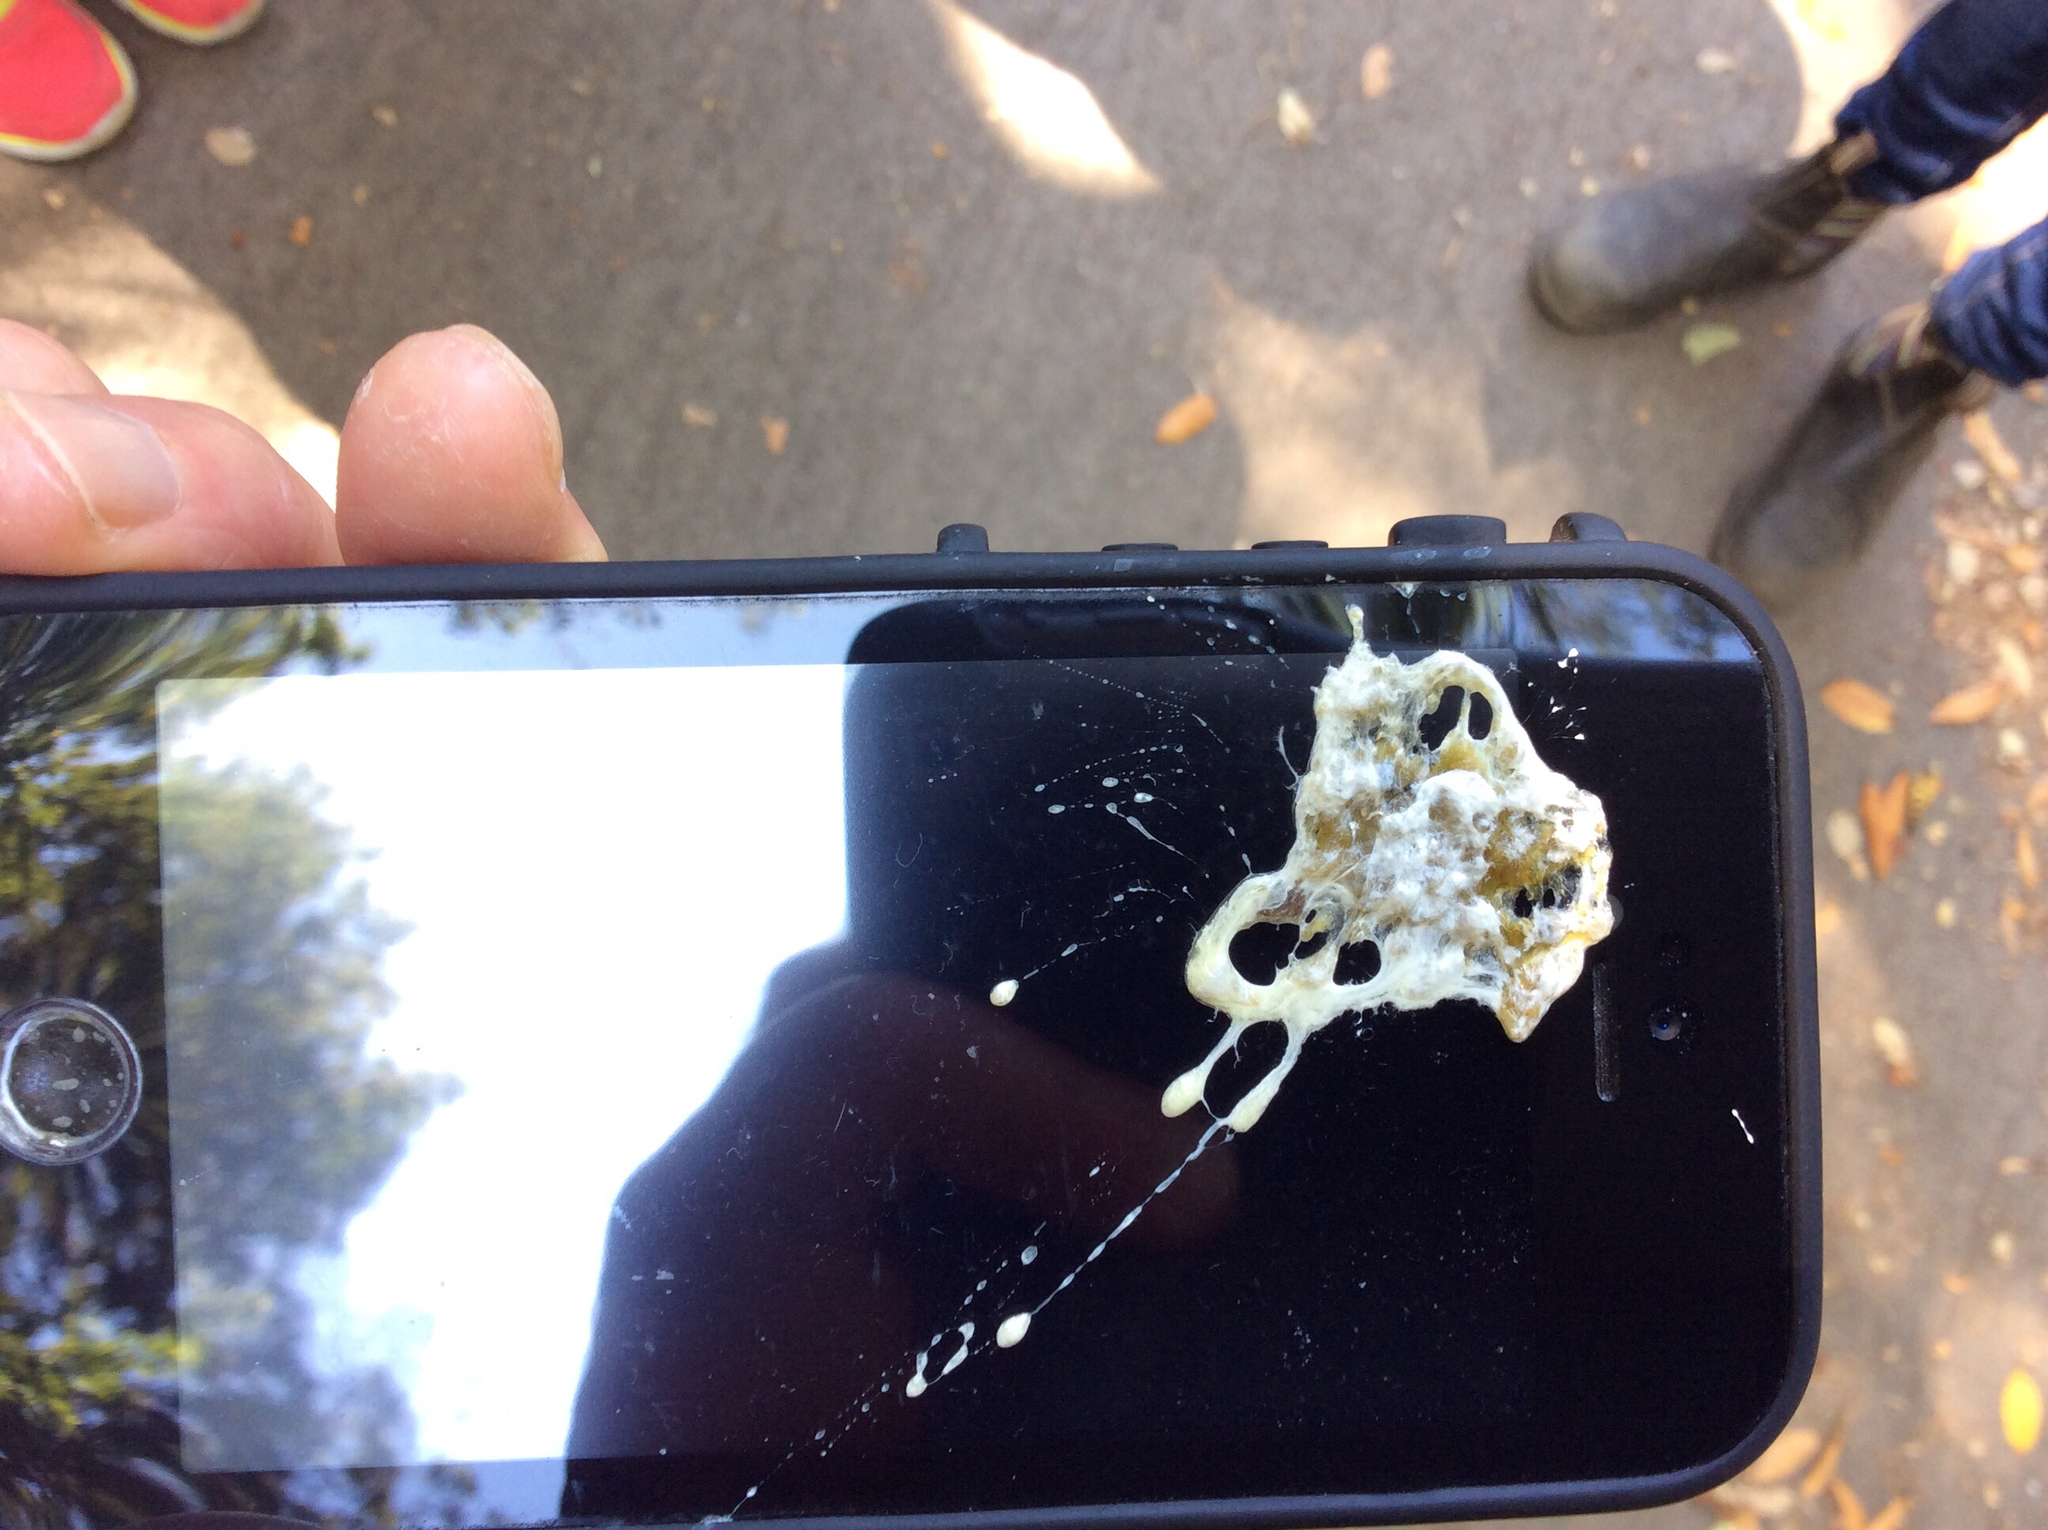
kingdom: Animalia
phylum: Chordata
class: Aves
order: Passeriformes
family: Corvidae
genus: Corvus
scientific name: Corvus corax
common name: Common raven
